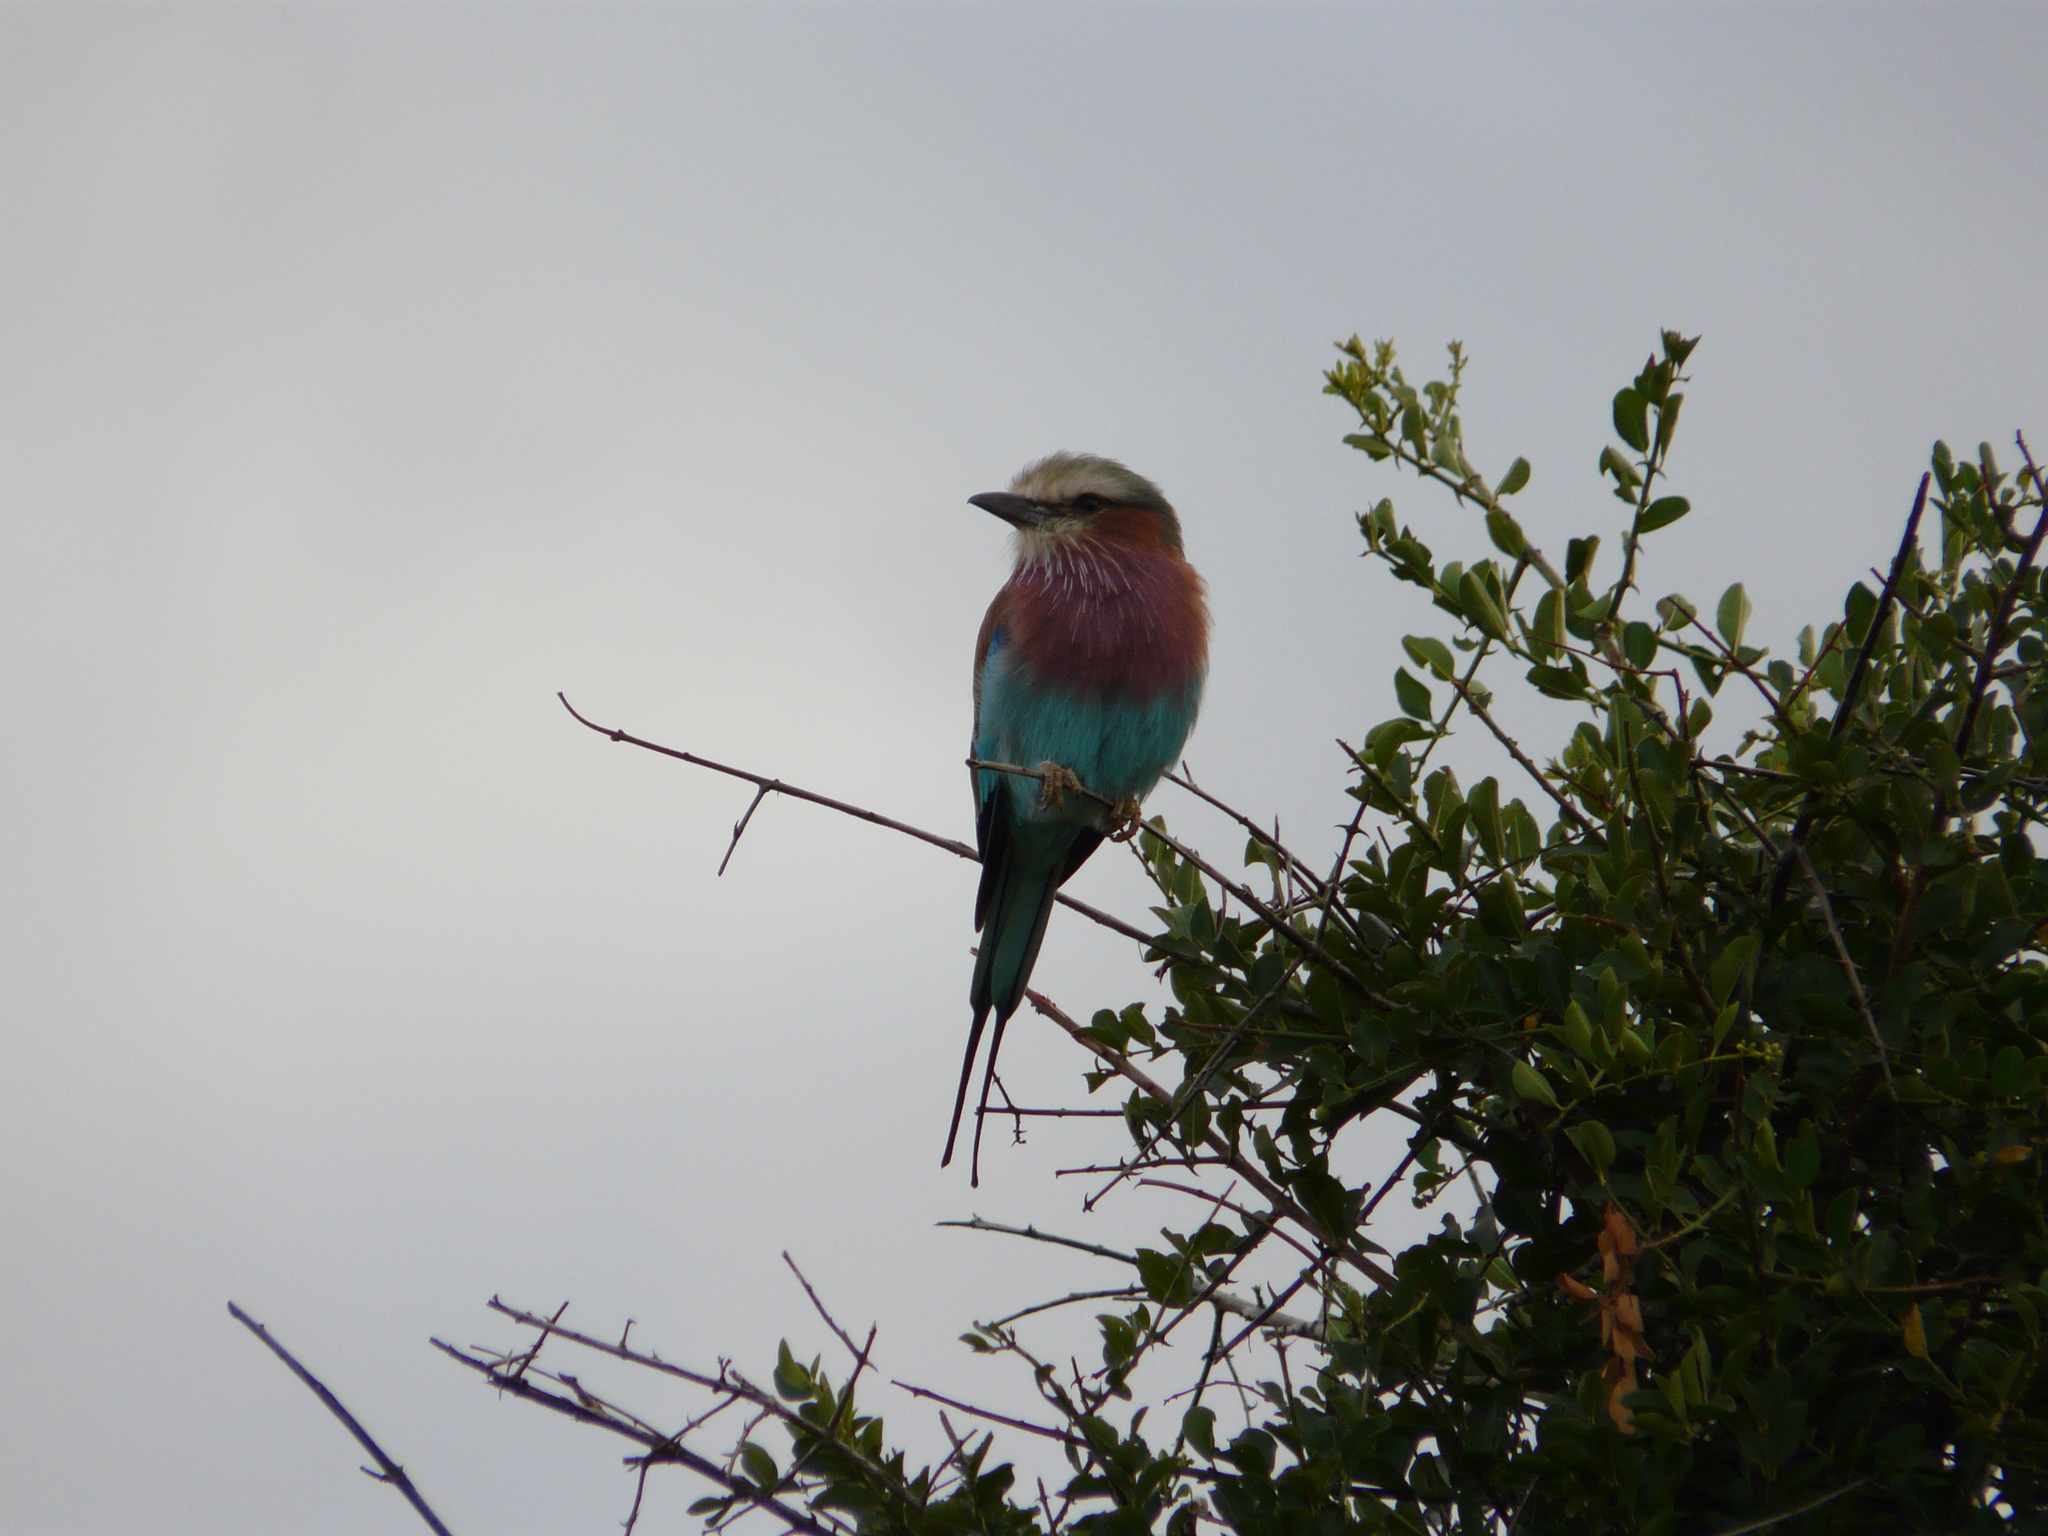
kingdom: Animalia
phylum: Chordata
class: Aves
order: Coraciiformes
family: Coraciidae
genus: Coracias
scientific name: Coracias caudatus
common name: Lilac-breasted roller
